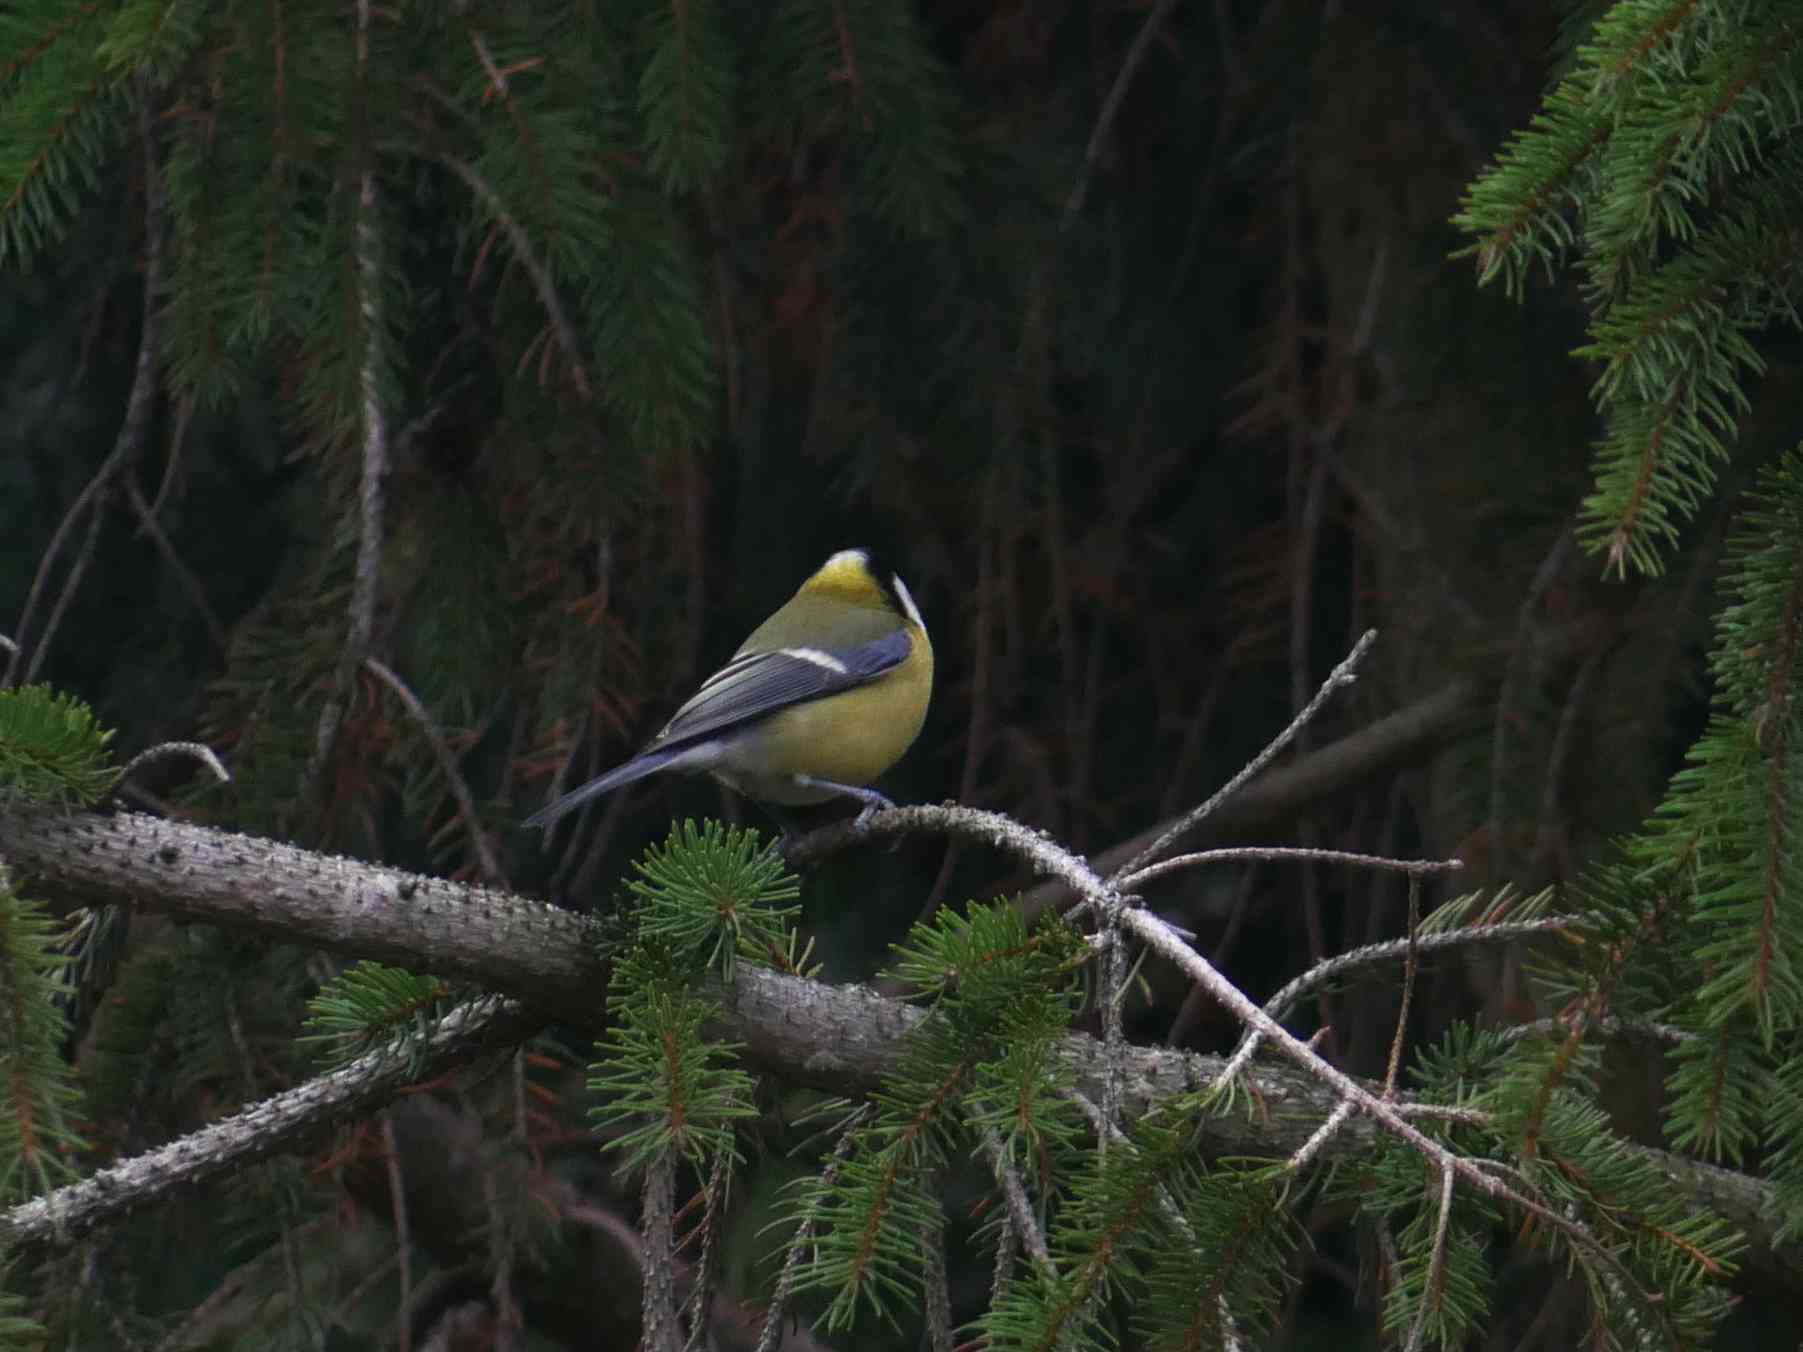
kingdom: Animalia
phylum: Chordata
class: Aves
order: Passeriformes
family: Paridae
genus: Parus
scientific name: Parus major
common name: Great tit
